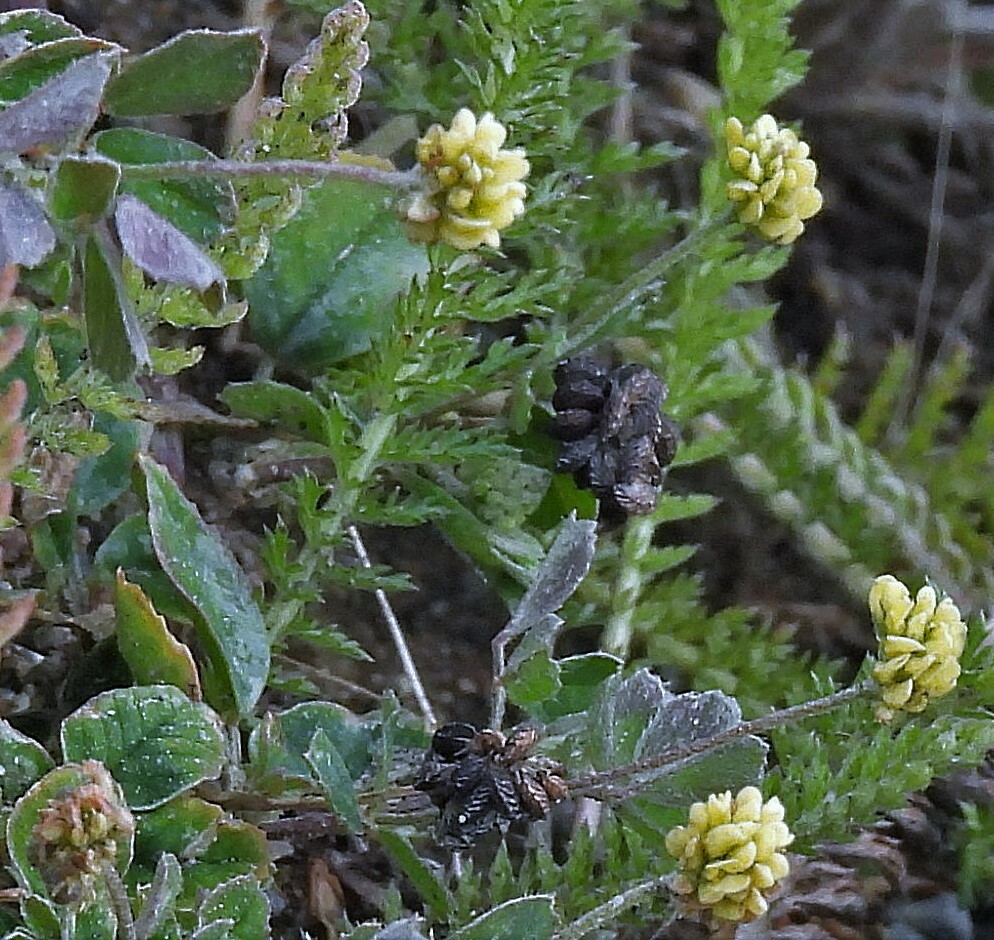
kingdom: Plantae
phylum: Tracheophyta
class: Magnoliopsida
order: Fabales
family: Fabaceae
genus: Medicago
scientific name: Medicago lupulina
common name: Black medick
